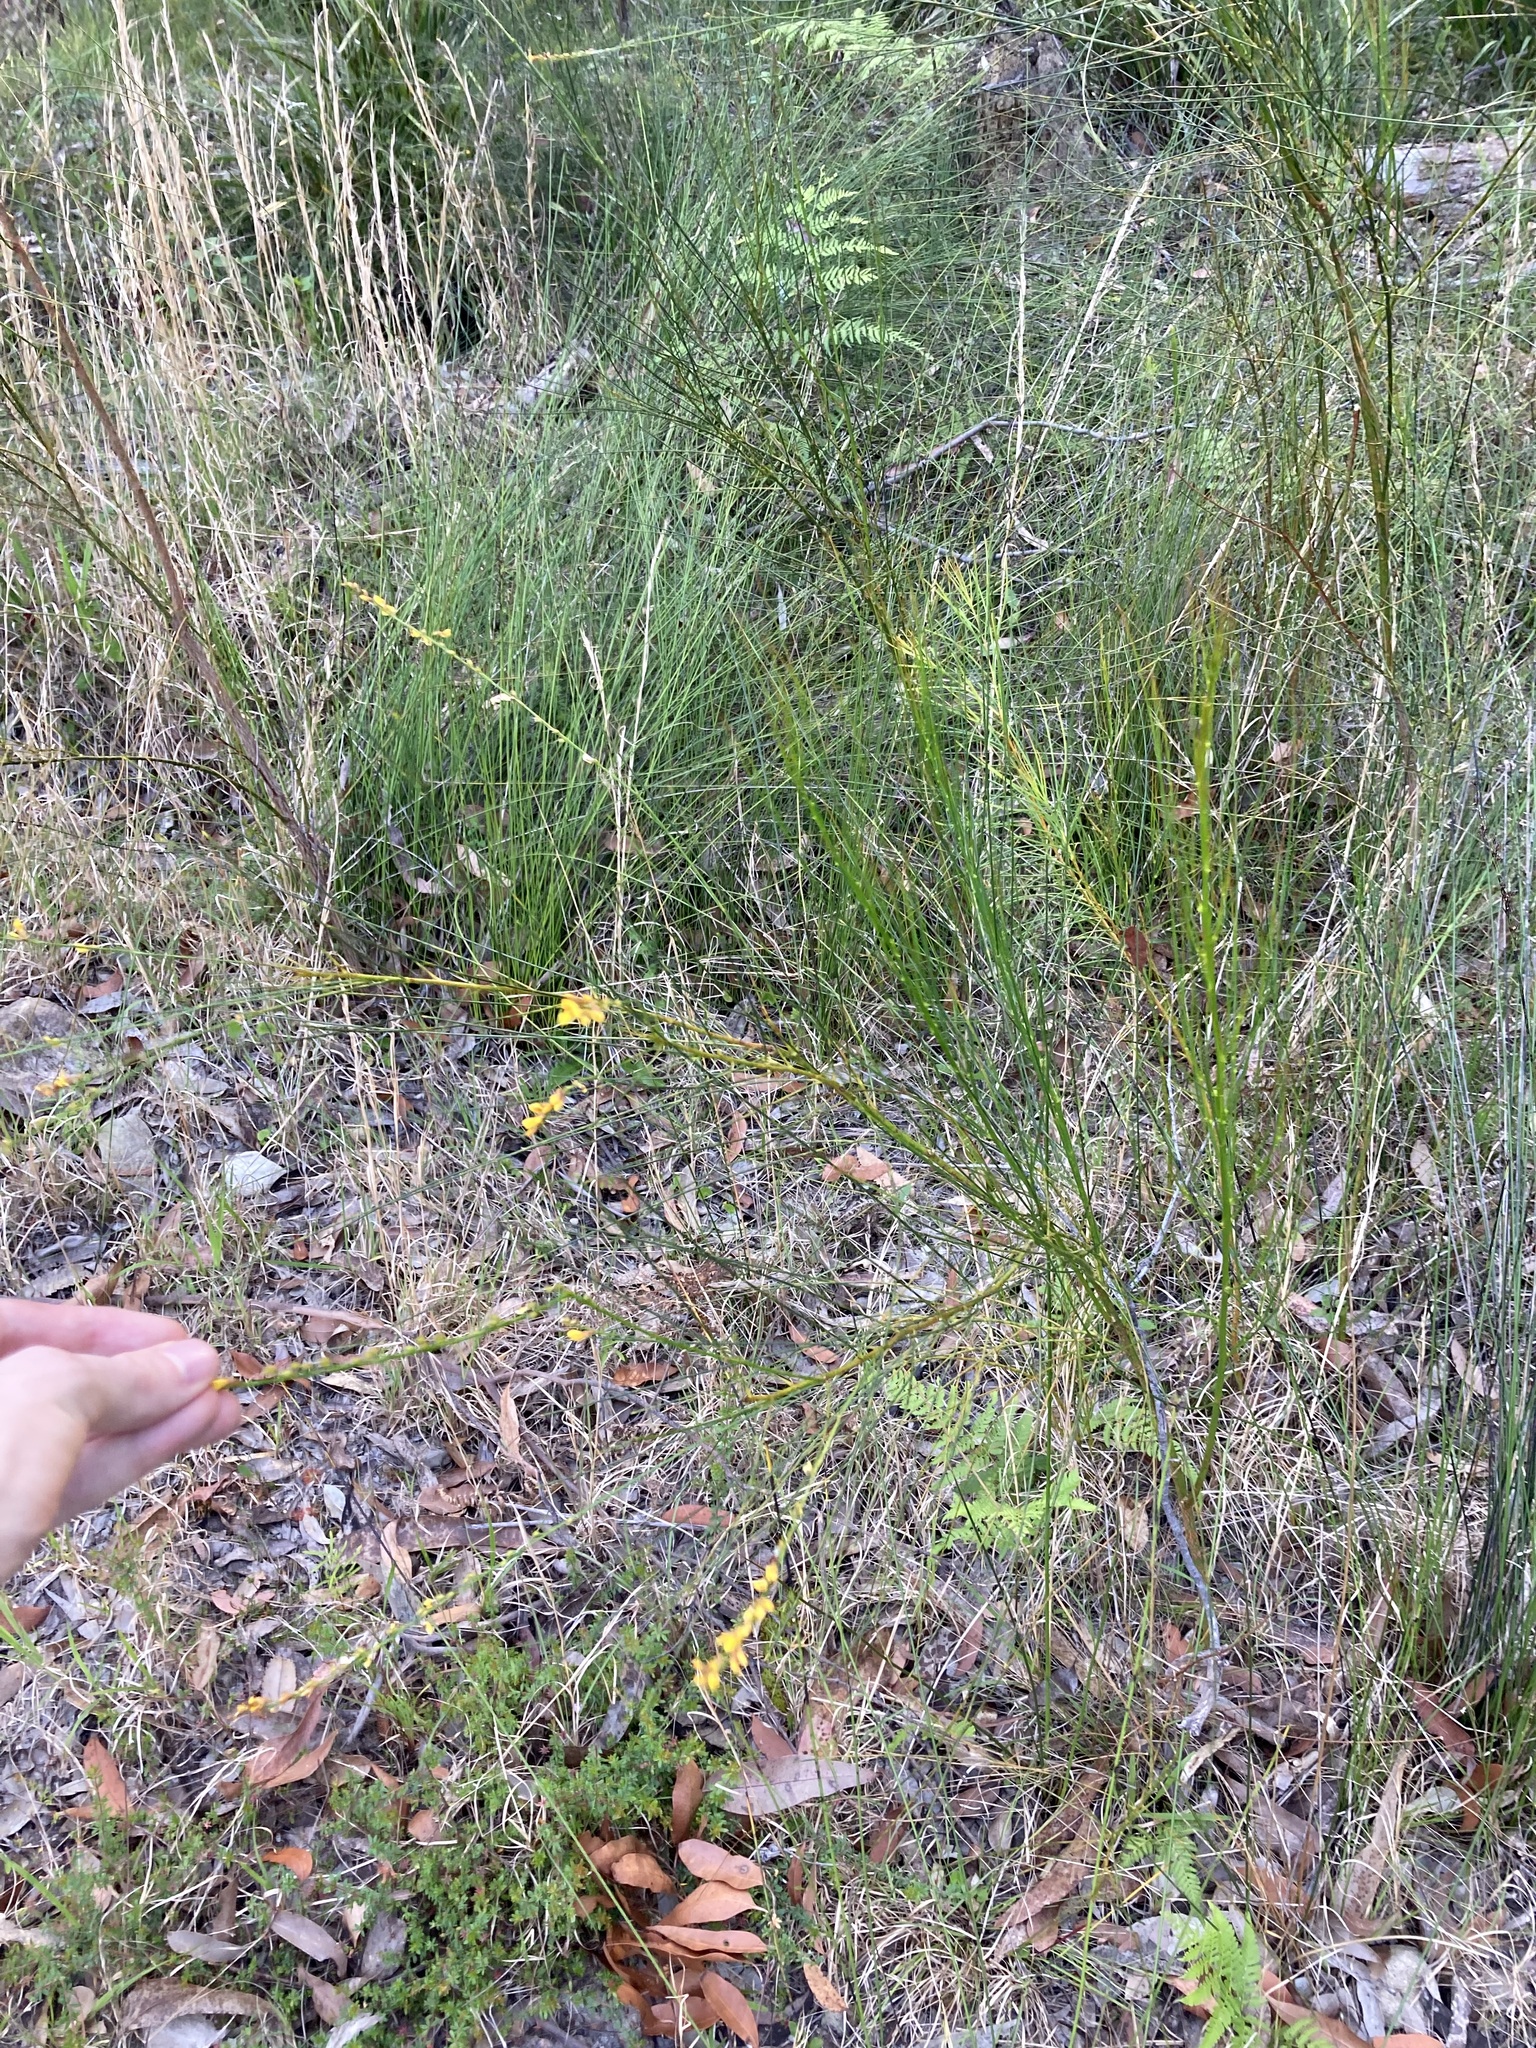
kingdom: Plantae
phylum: Tracheophyta
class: Magnoliopsida
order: Fabales
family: Fabaceae
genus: Viminaria
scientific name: Viminaria juncea
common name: Golden spray
